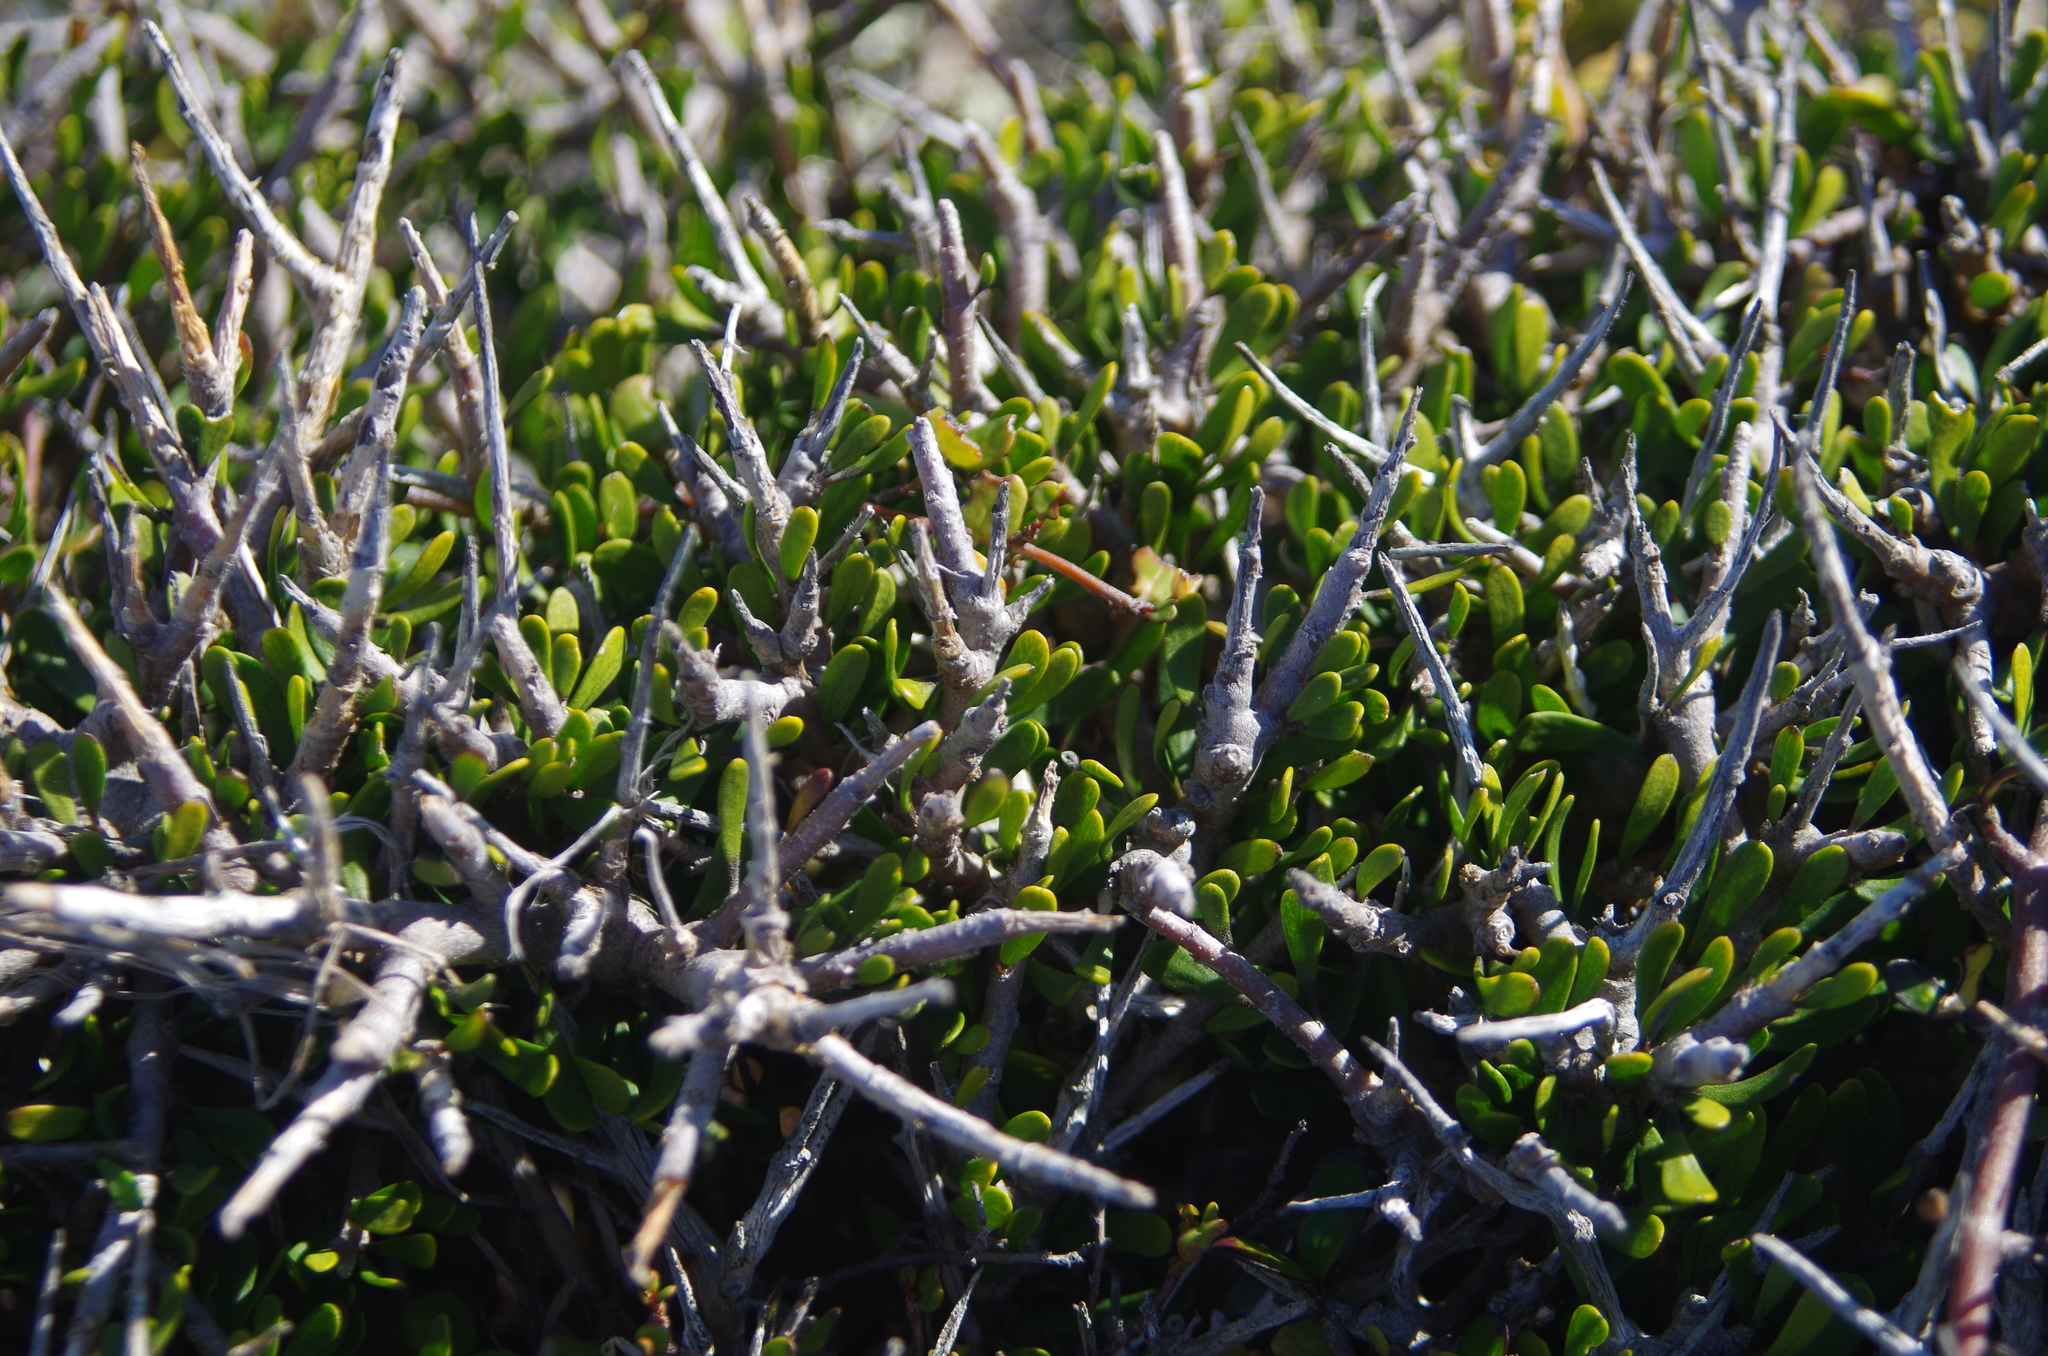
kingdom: Plantae
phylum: Tracheophyta
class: Magnoliopsida
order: Malpighiales
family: Violaceae
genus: Melicytus
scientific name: Melicytus alpinus
